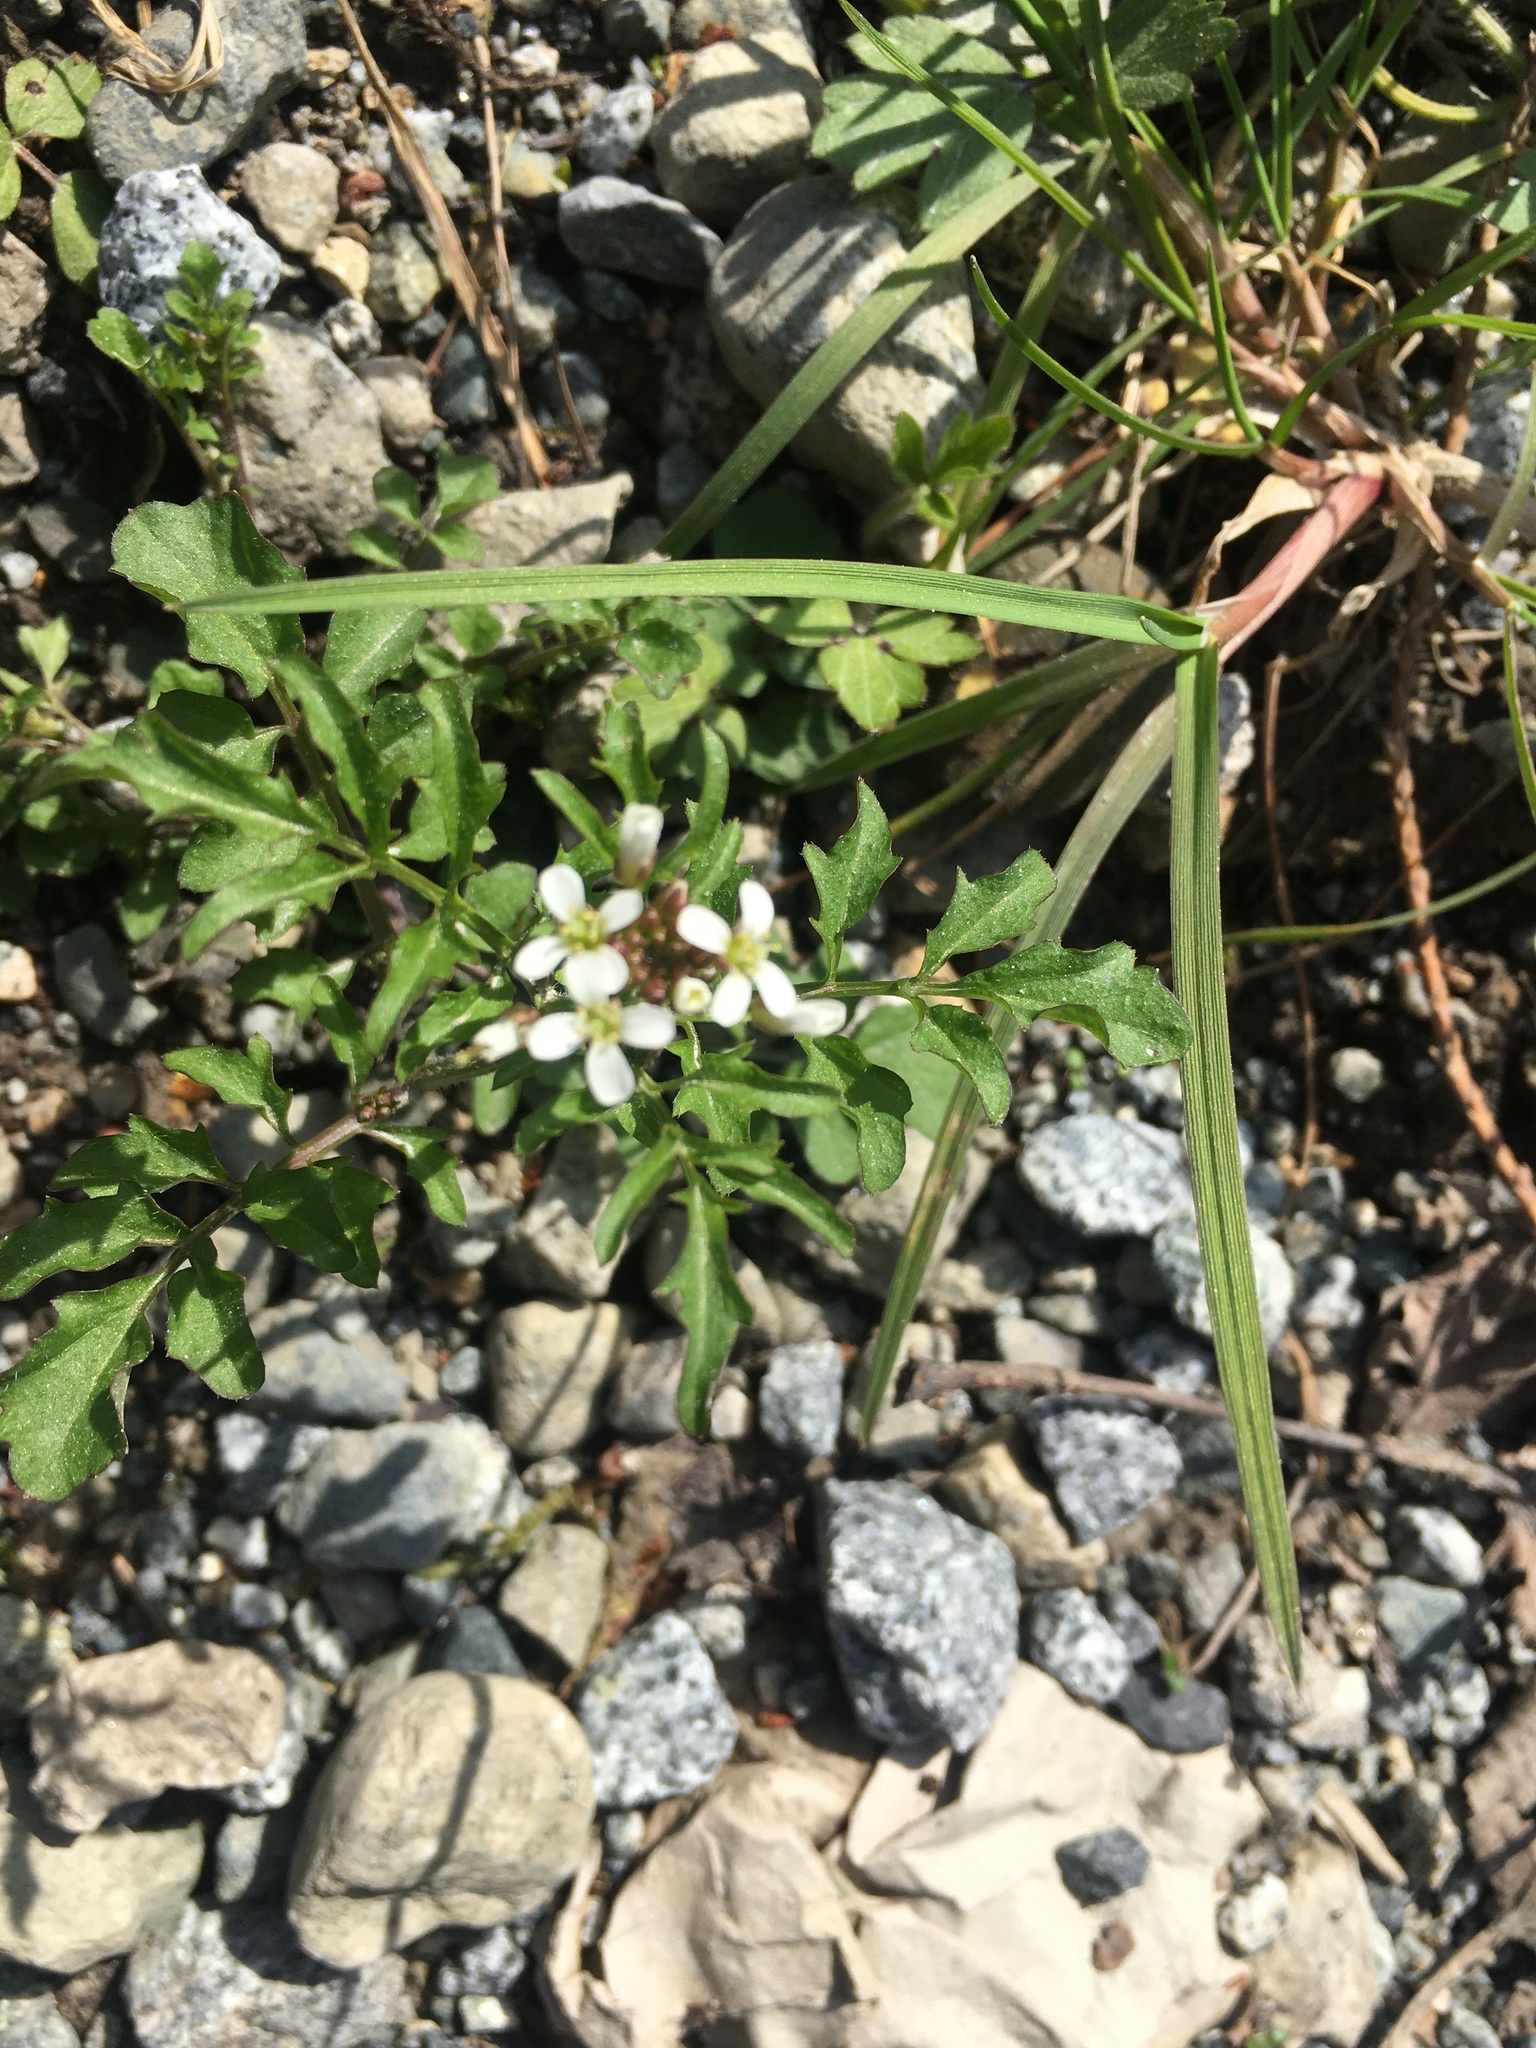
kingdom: Plantae
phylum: Tracheophyta
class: Magnoliopsida
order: Brassicales
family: Brassicaceae
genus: Cardamine
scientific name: Cardamine flexuosa
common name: Woodland bittercress
